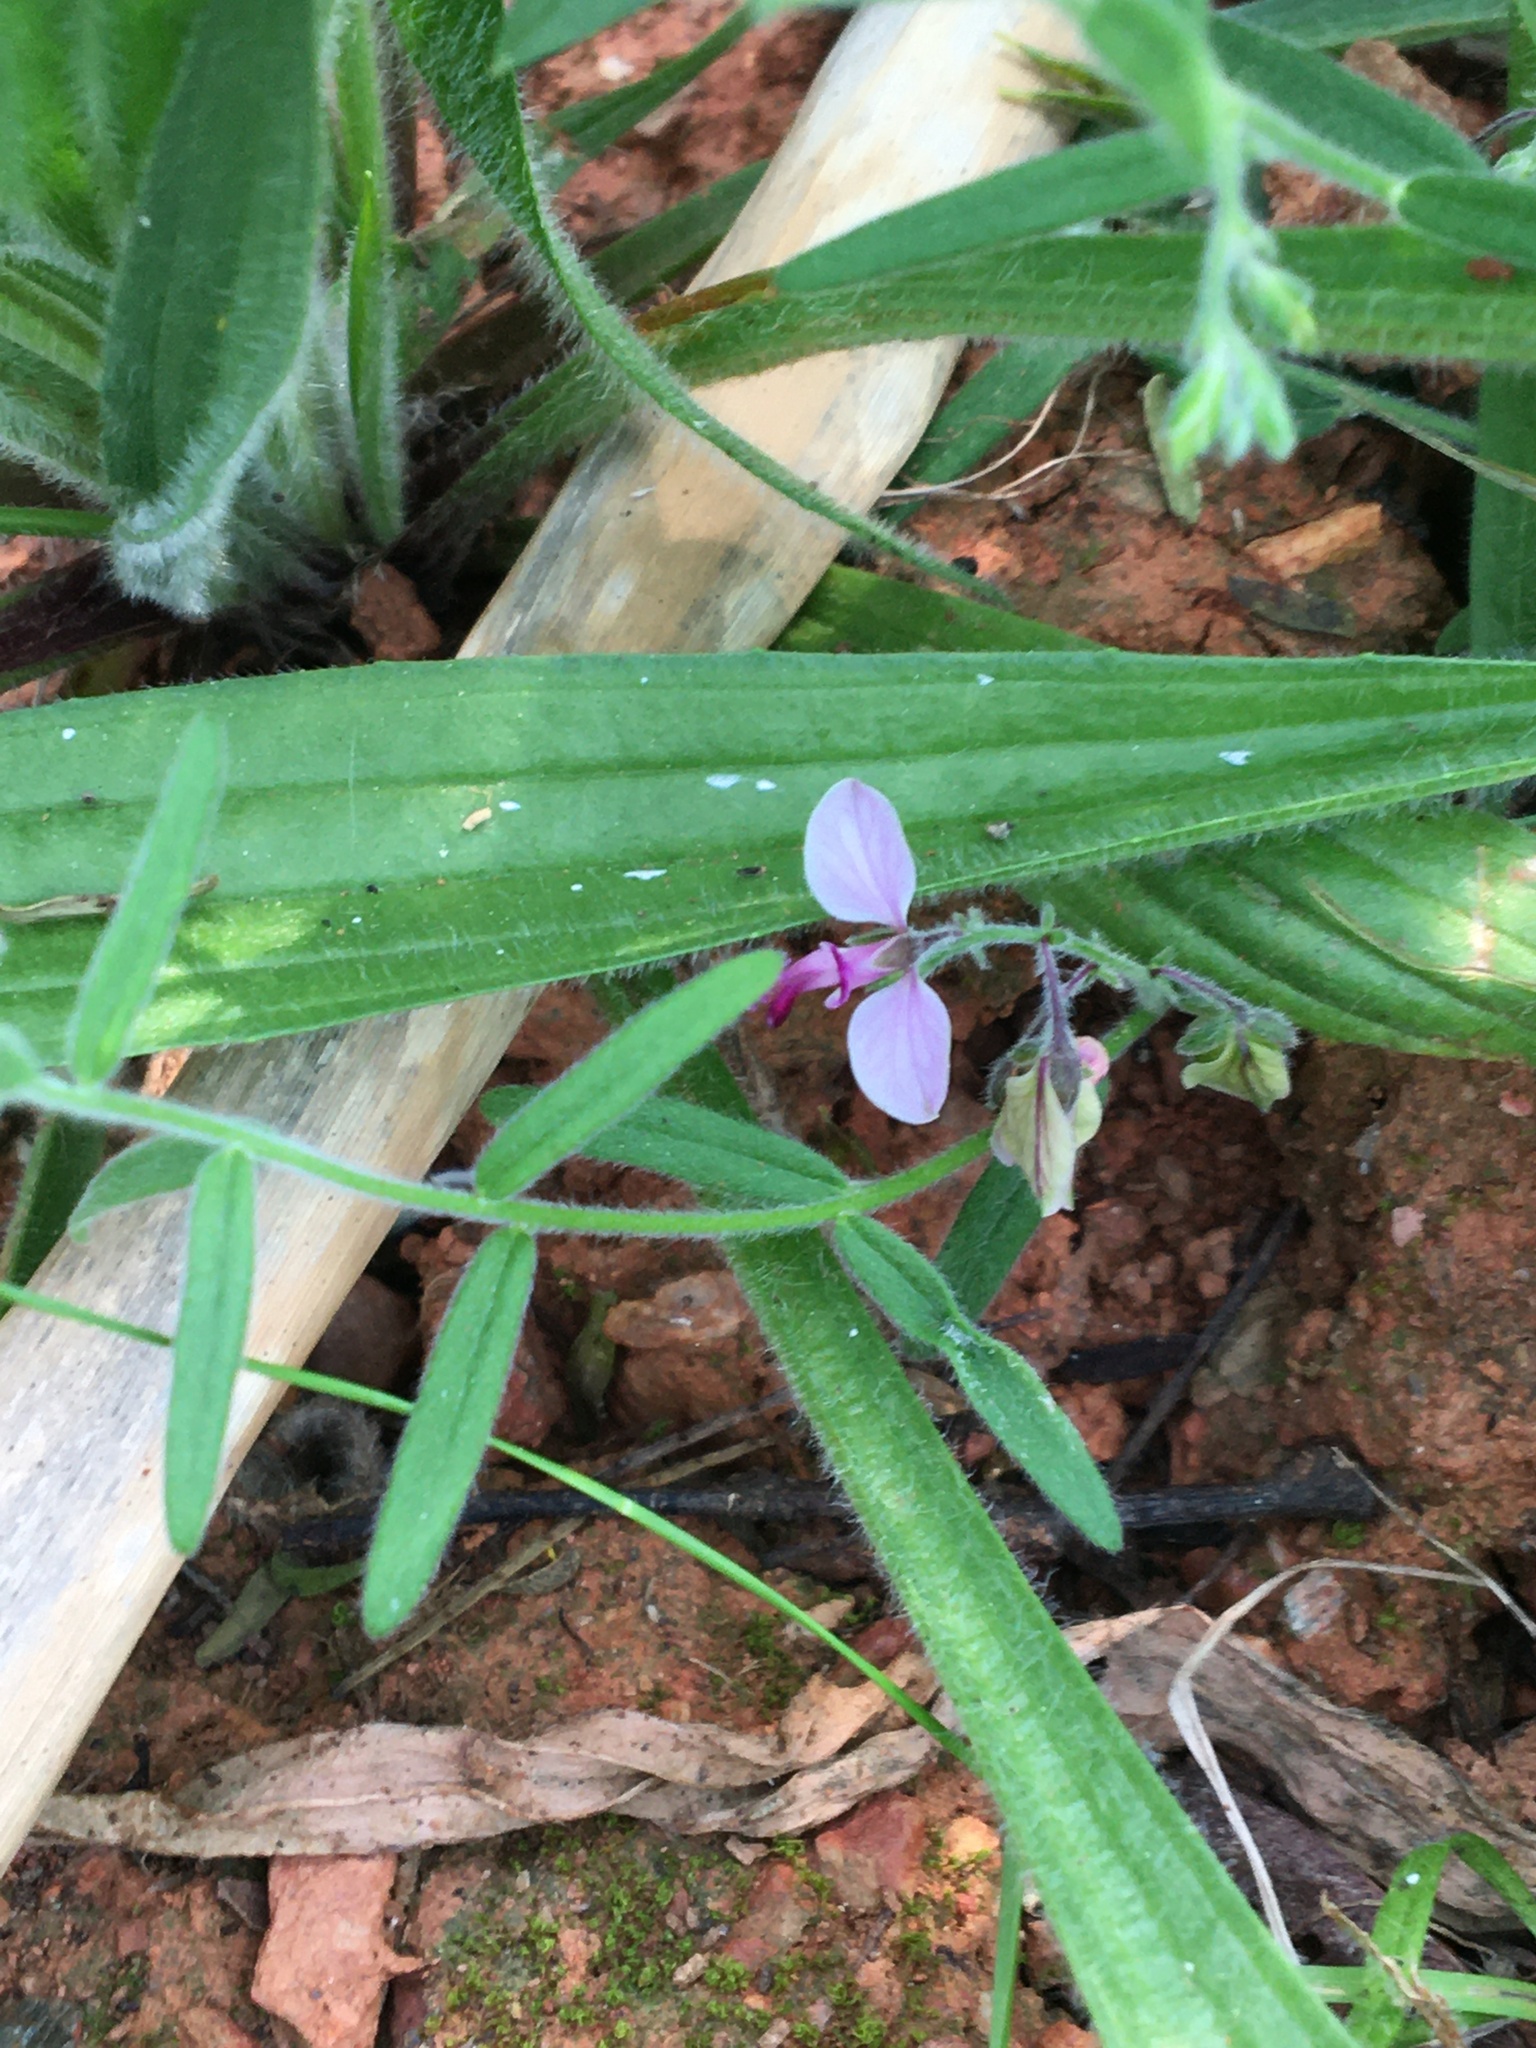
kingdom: Plantae
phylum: Tracheophyta
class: Magnoliopsida
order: Fabales
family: Polygalaceae
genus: Polygala
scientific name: Polygala scabra
